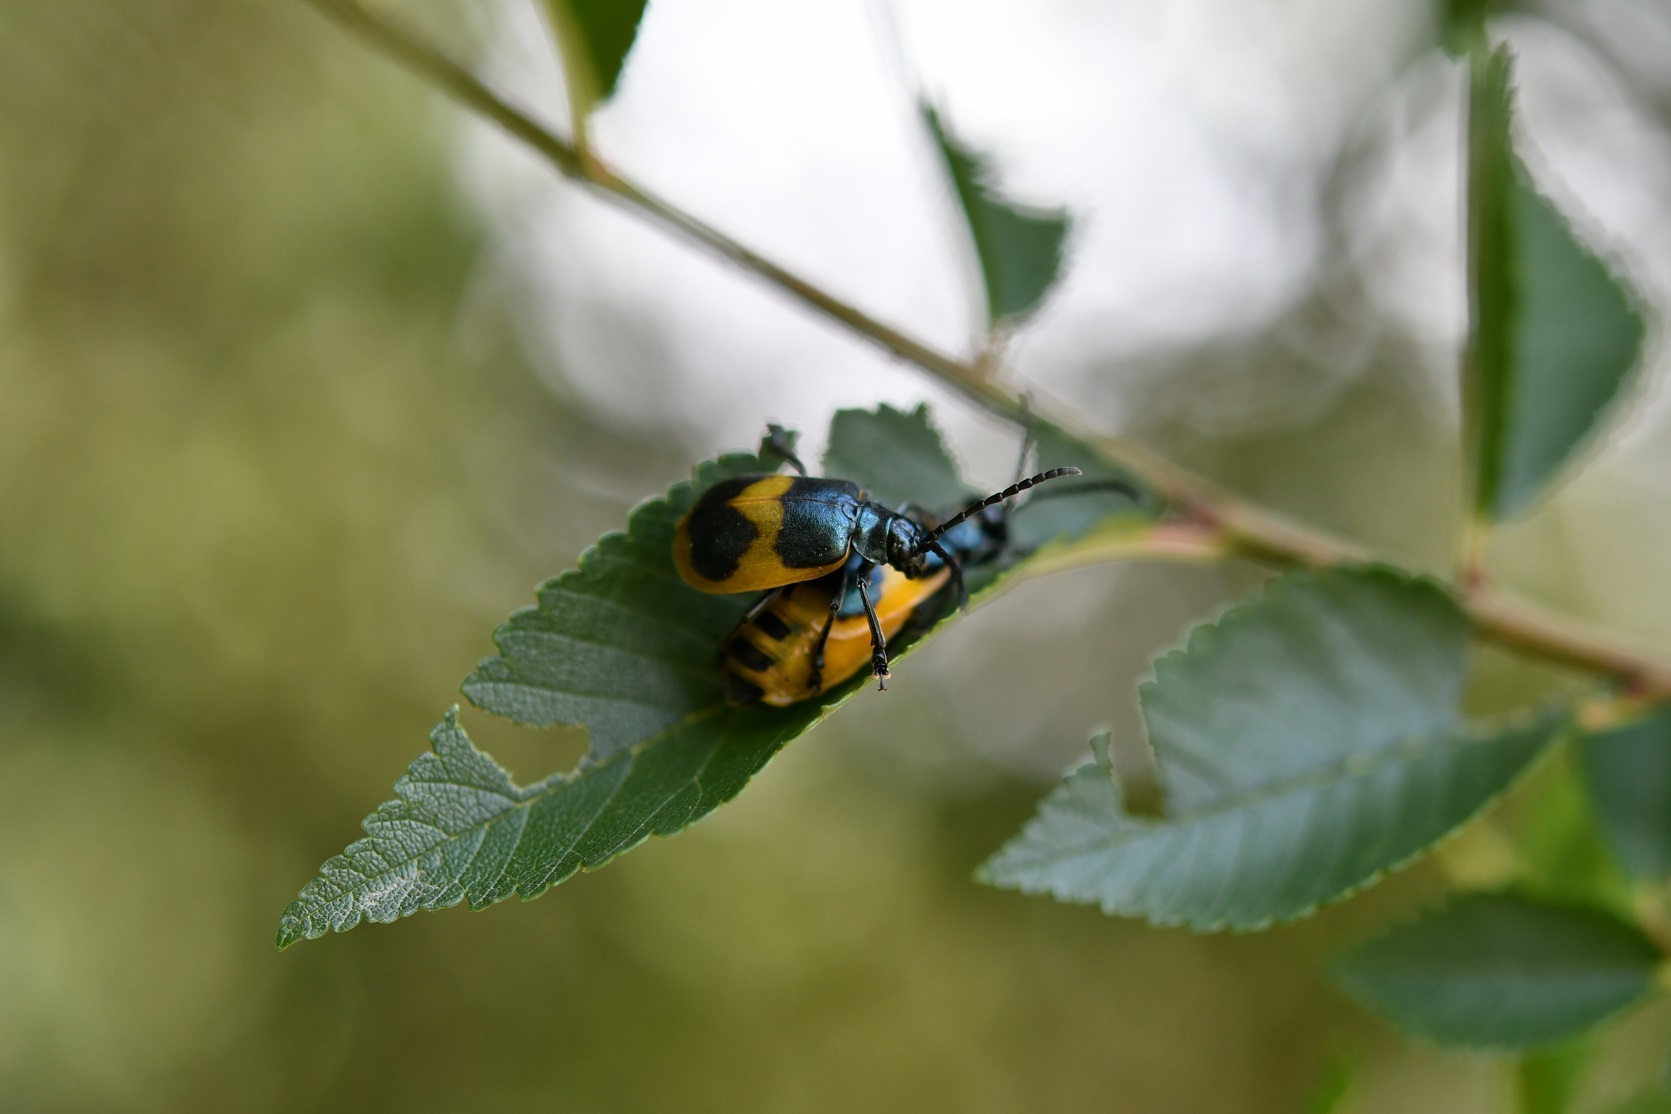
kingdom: Animalia
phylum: Arthropoda
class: Insecta
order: Coleoptera
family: Chrysomelidae
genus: Monocesta
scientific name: Monocesta
